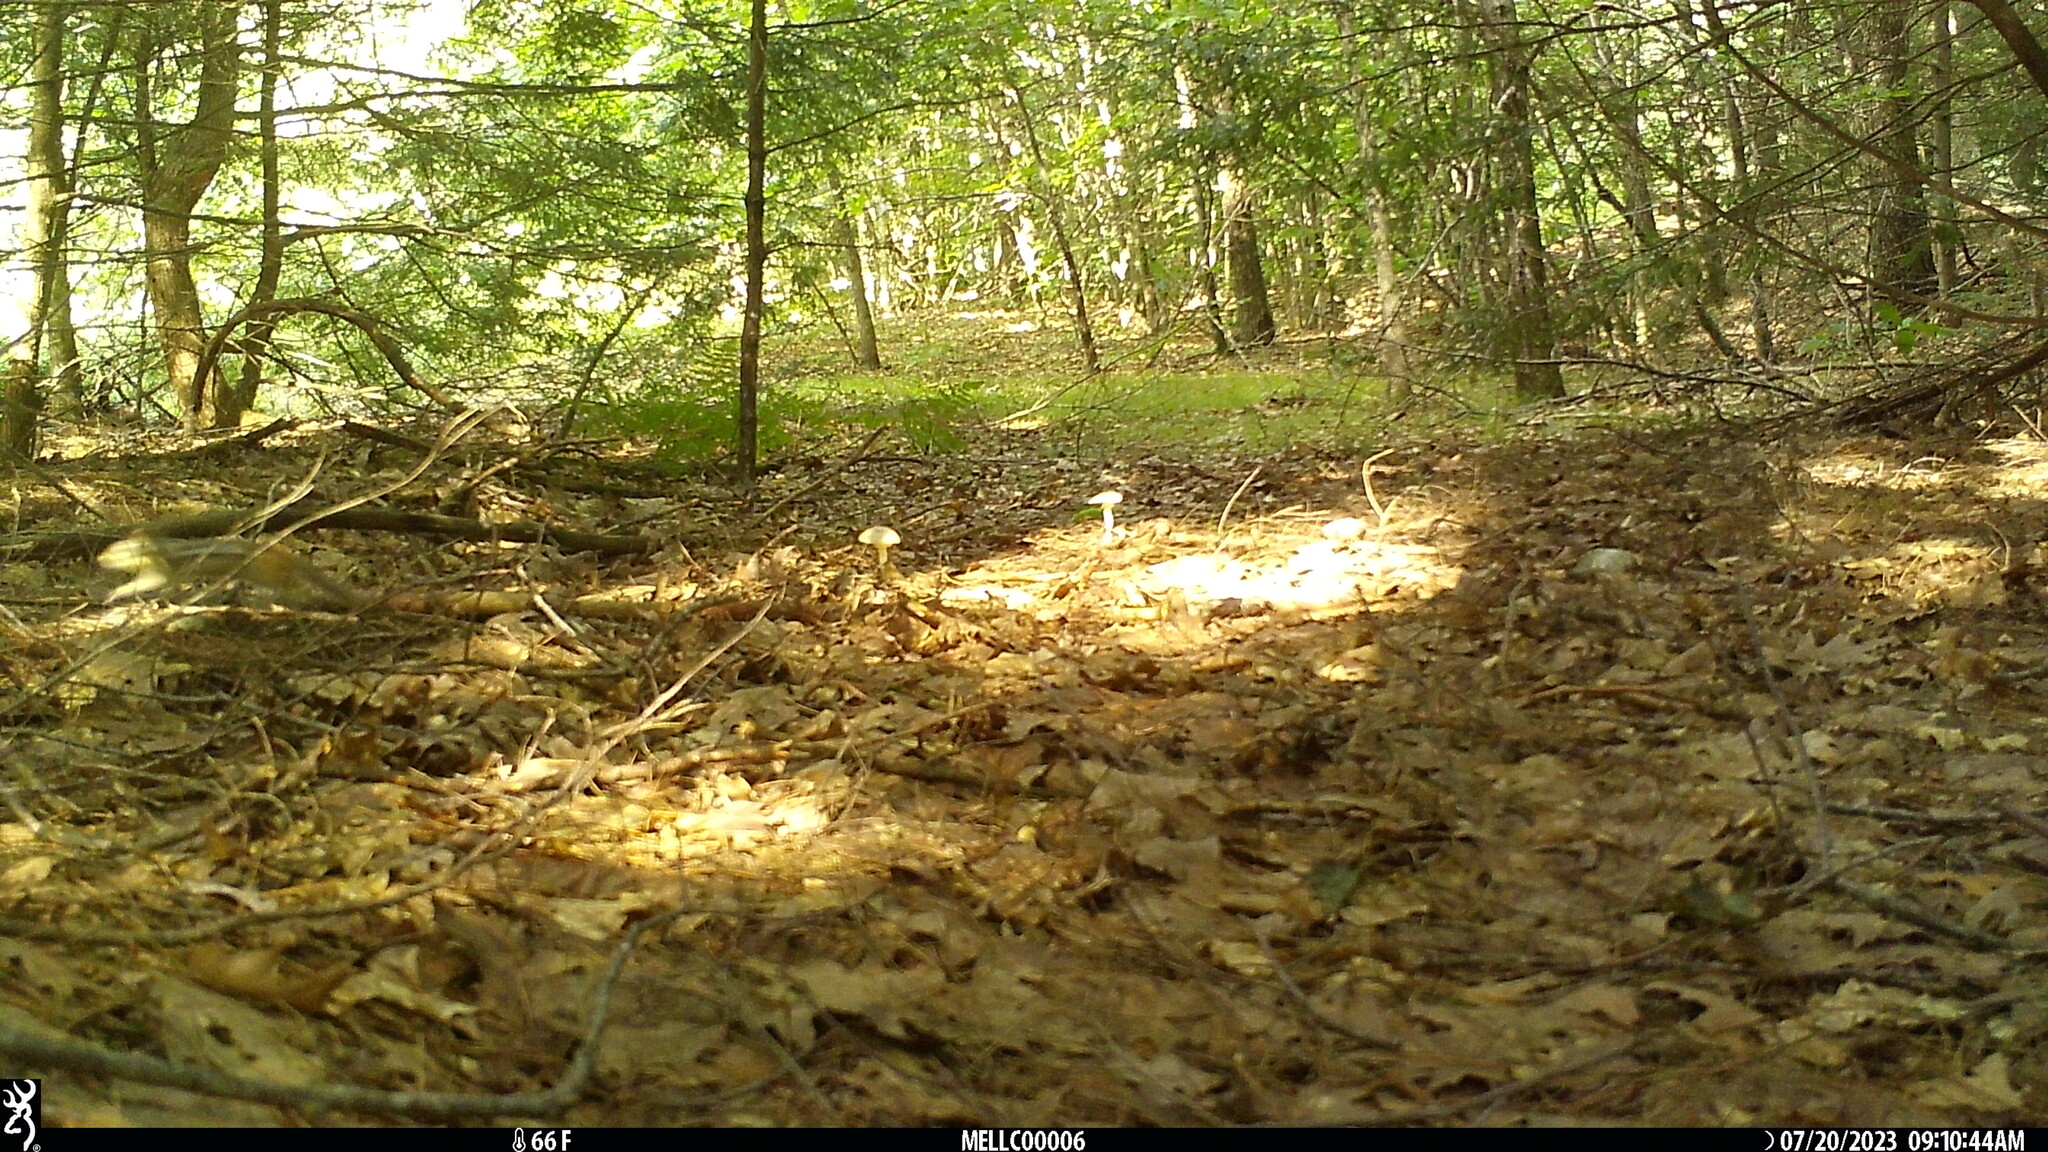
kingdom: Animalia
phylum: Chordata
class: Mammalia
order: Rodentia
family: Sciuridae
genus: Tamias
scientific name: Tamias striatus
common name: Eastern chipmunk
